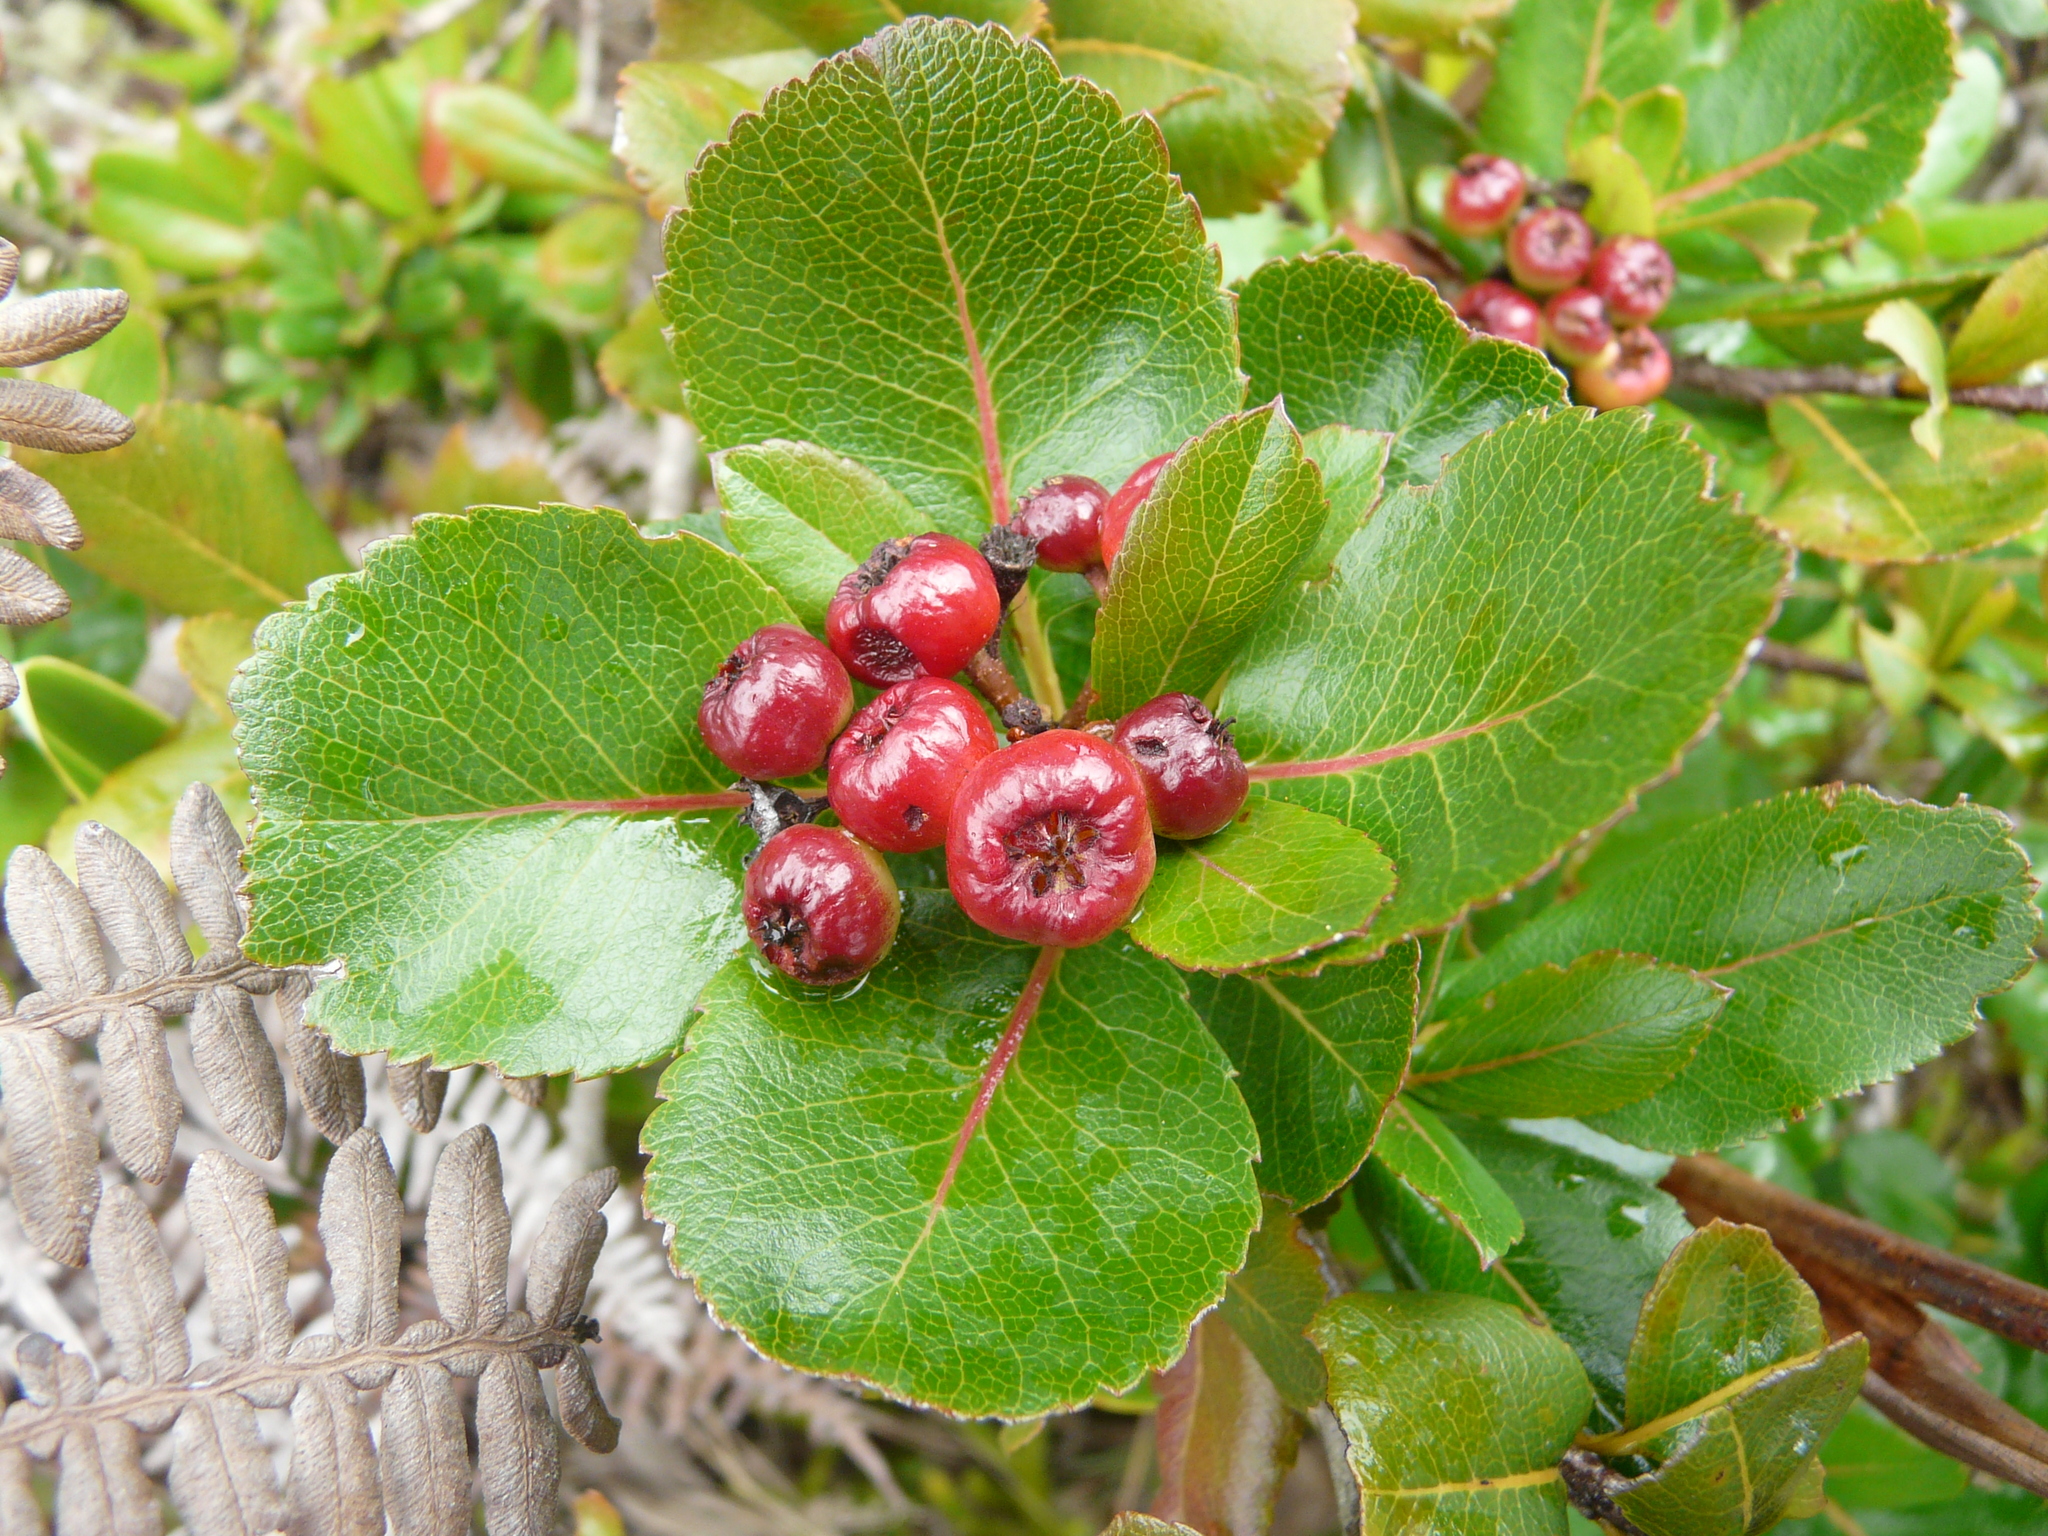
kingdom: Plantae
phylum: Tracheophyta
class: Magnoliopsida
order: Rosales
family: Rosaceae
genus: Hesperomeles
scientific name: Hesperomeles obtusifolia
